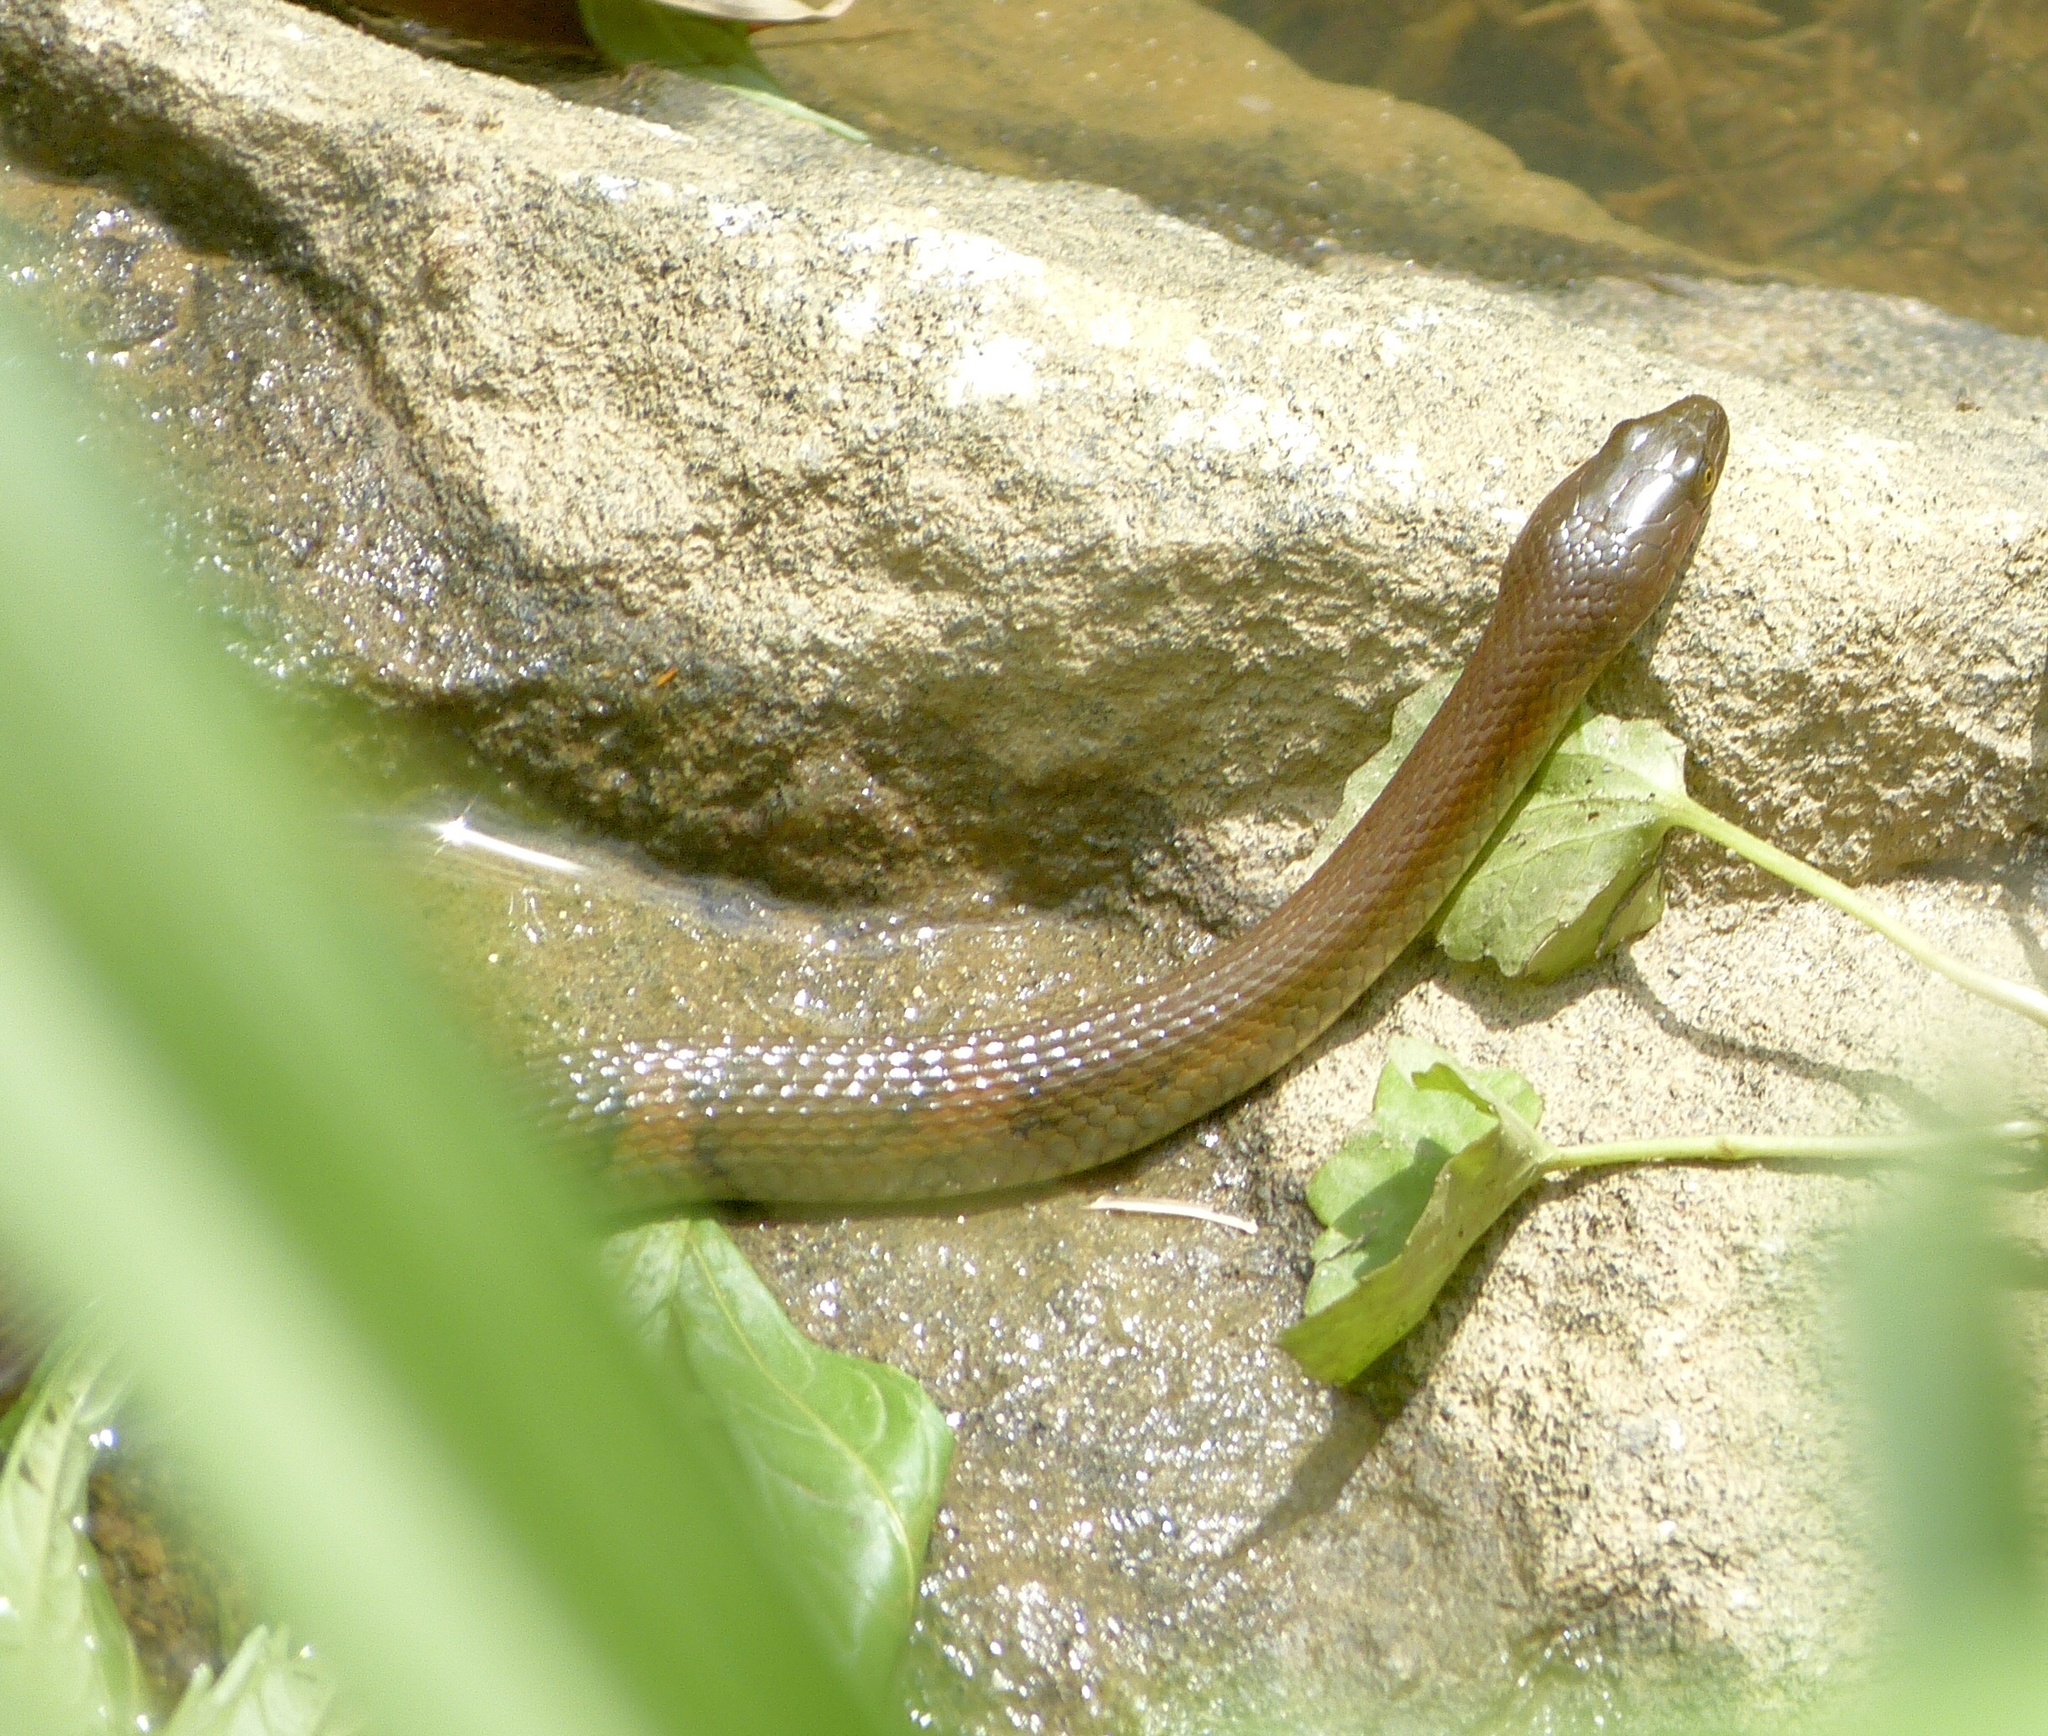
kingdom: Animalia
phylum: Chordata
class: Squamata
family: Colubridae
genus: Fowlea
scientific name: Fowlea asperrimus
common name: Boulenger's keelback
